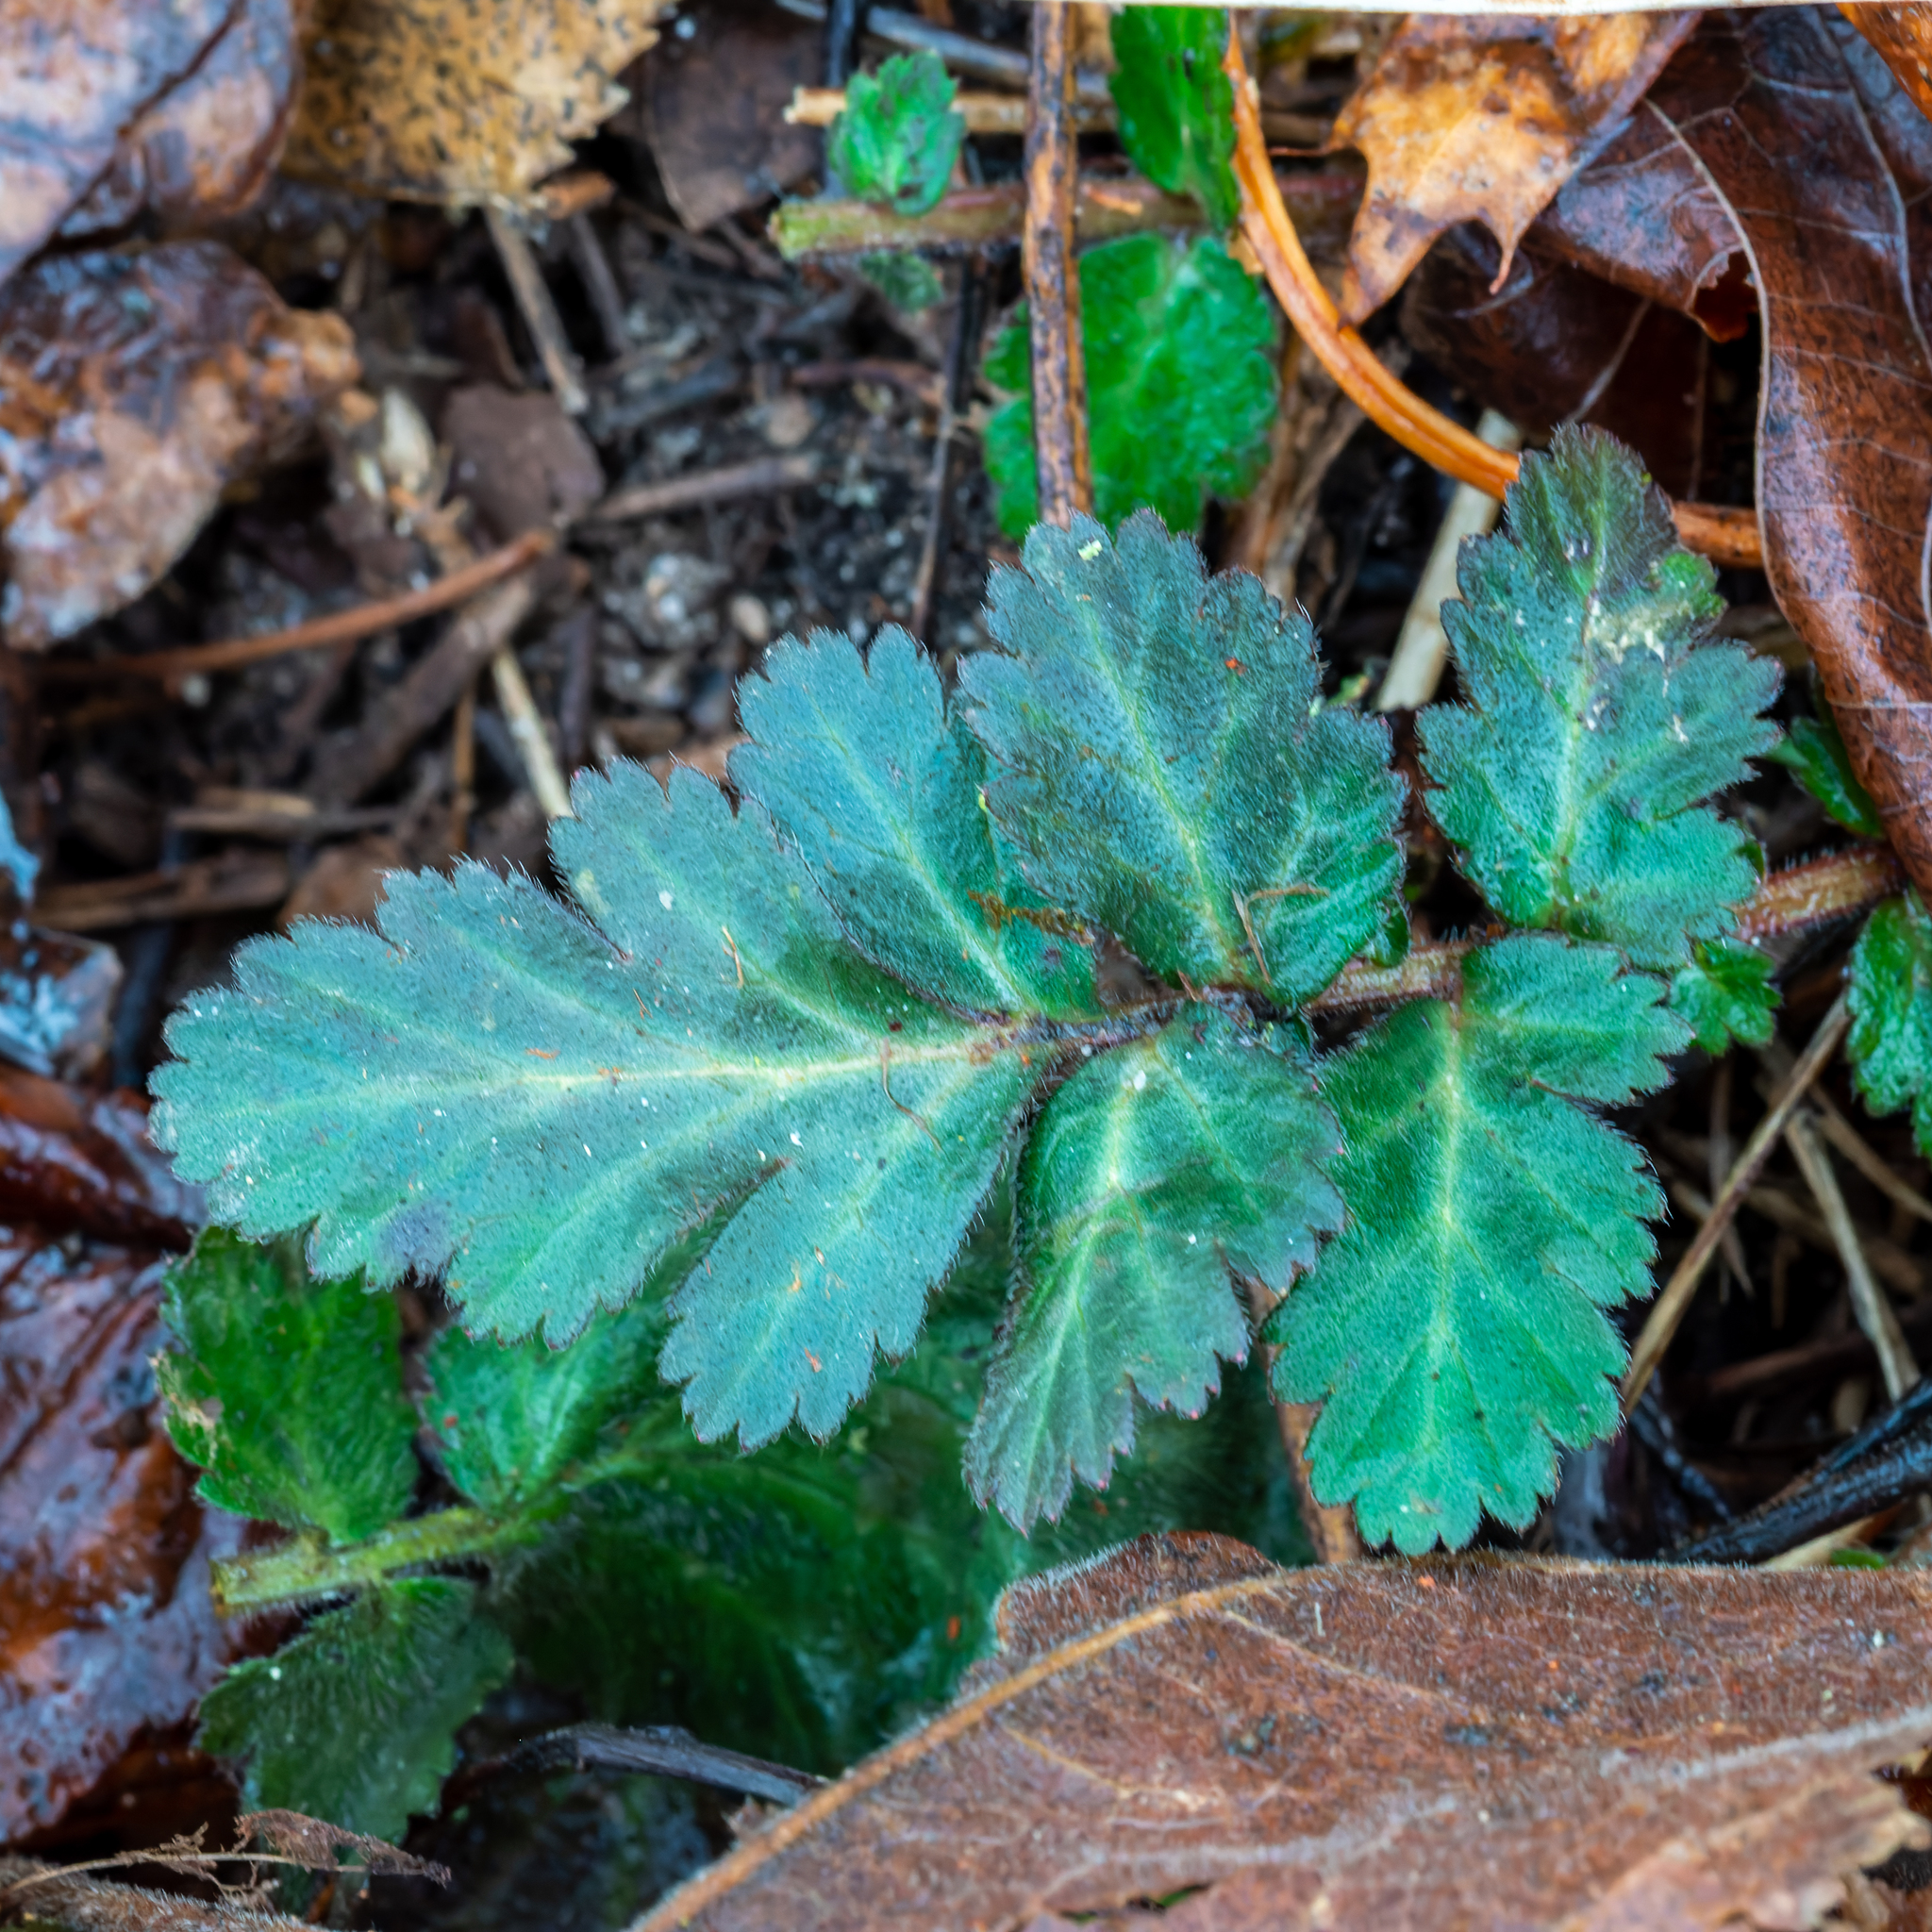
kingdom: Plantae
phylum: Tracheophyta
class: Magnoliopsida
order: Rosales
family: Rosaceae
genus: Geum
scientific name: Geum canadense
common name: White avens
